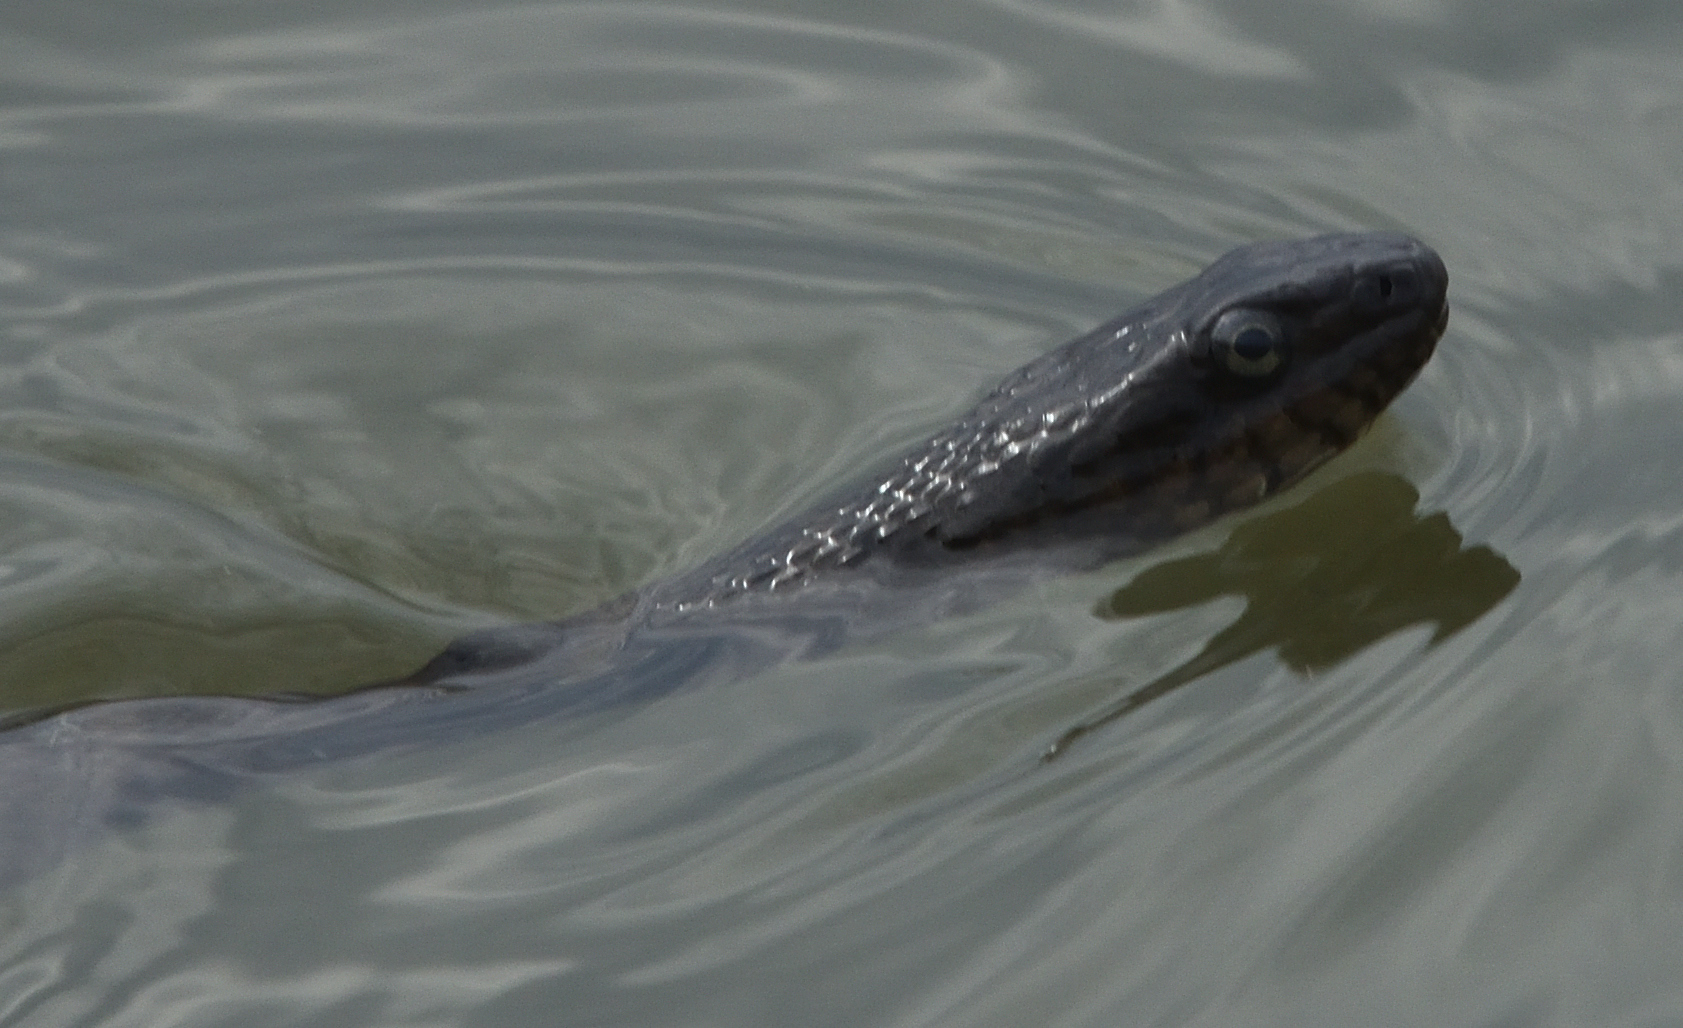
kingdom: Animalia
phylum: Chordata
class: Squamata
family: Colubridae
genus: Nerodia
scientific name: Nerodia sipedon
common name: Northern water snake
